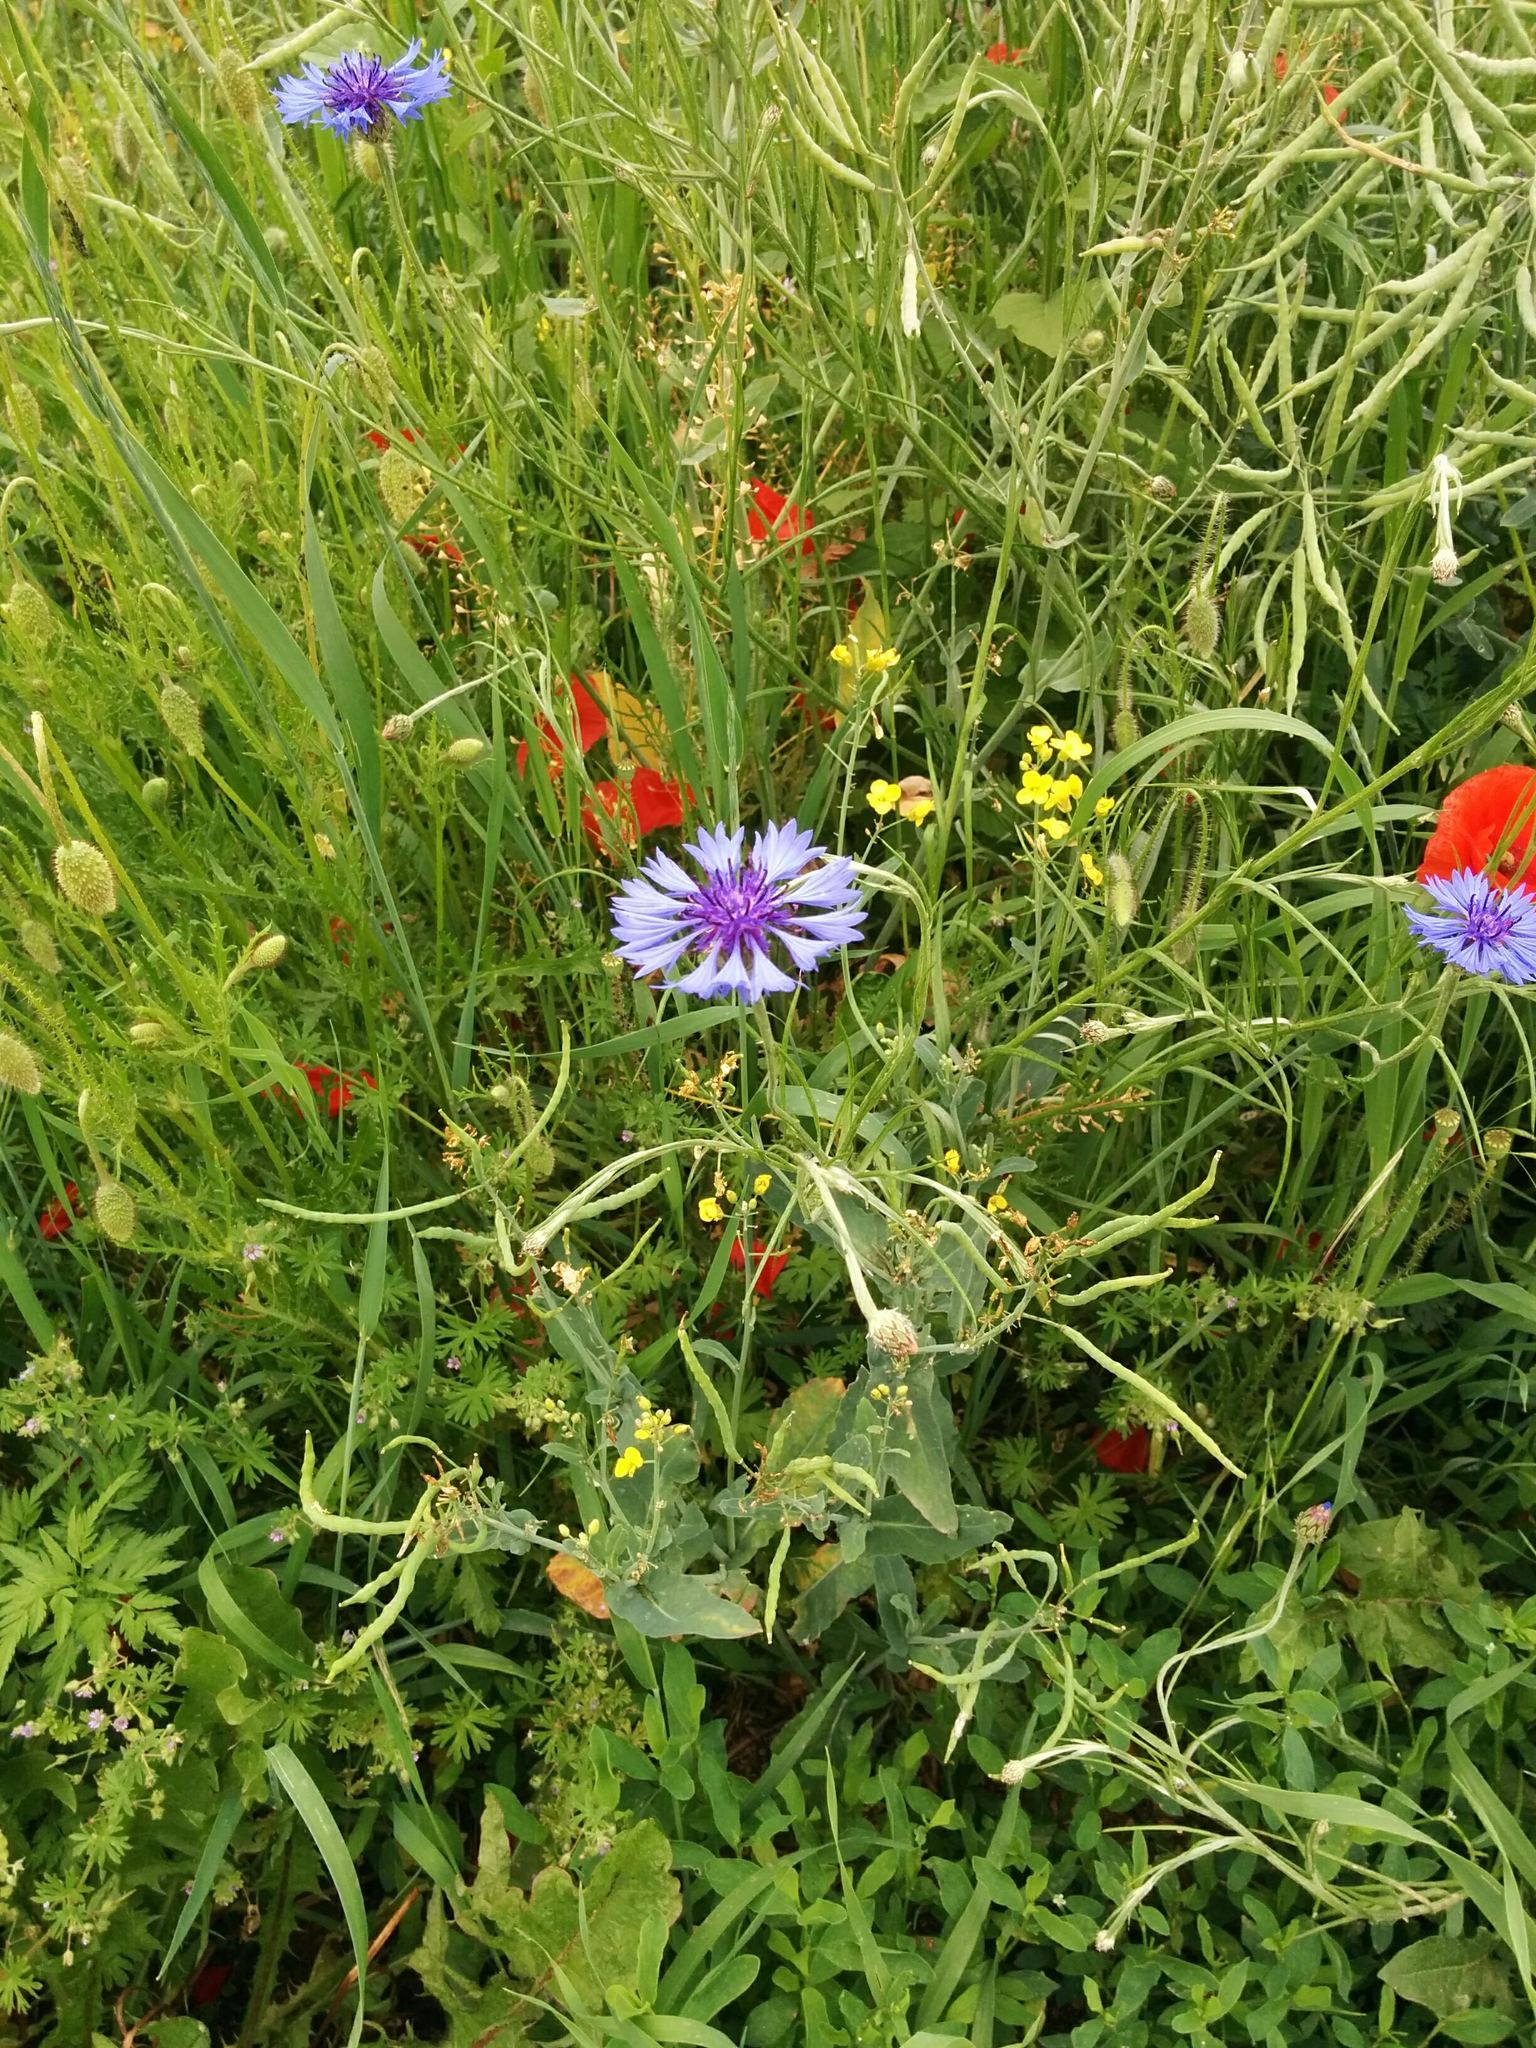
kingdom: Plantae
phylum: Tracheophyta
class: Magnoliopsida
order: Asterales
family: Asteraceae
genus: Centaurea
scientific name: Centaurea cyanus
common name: Cornflower
